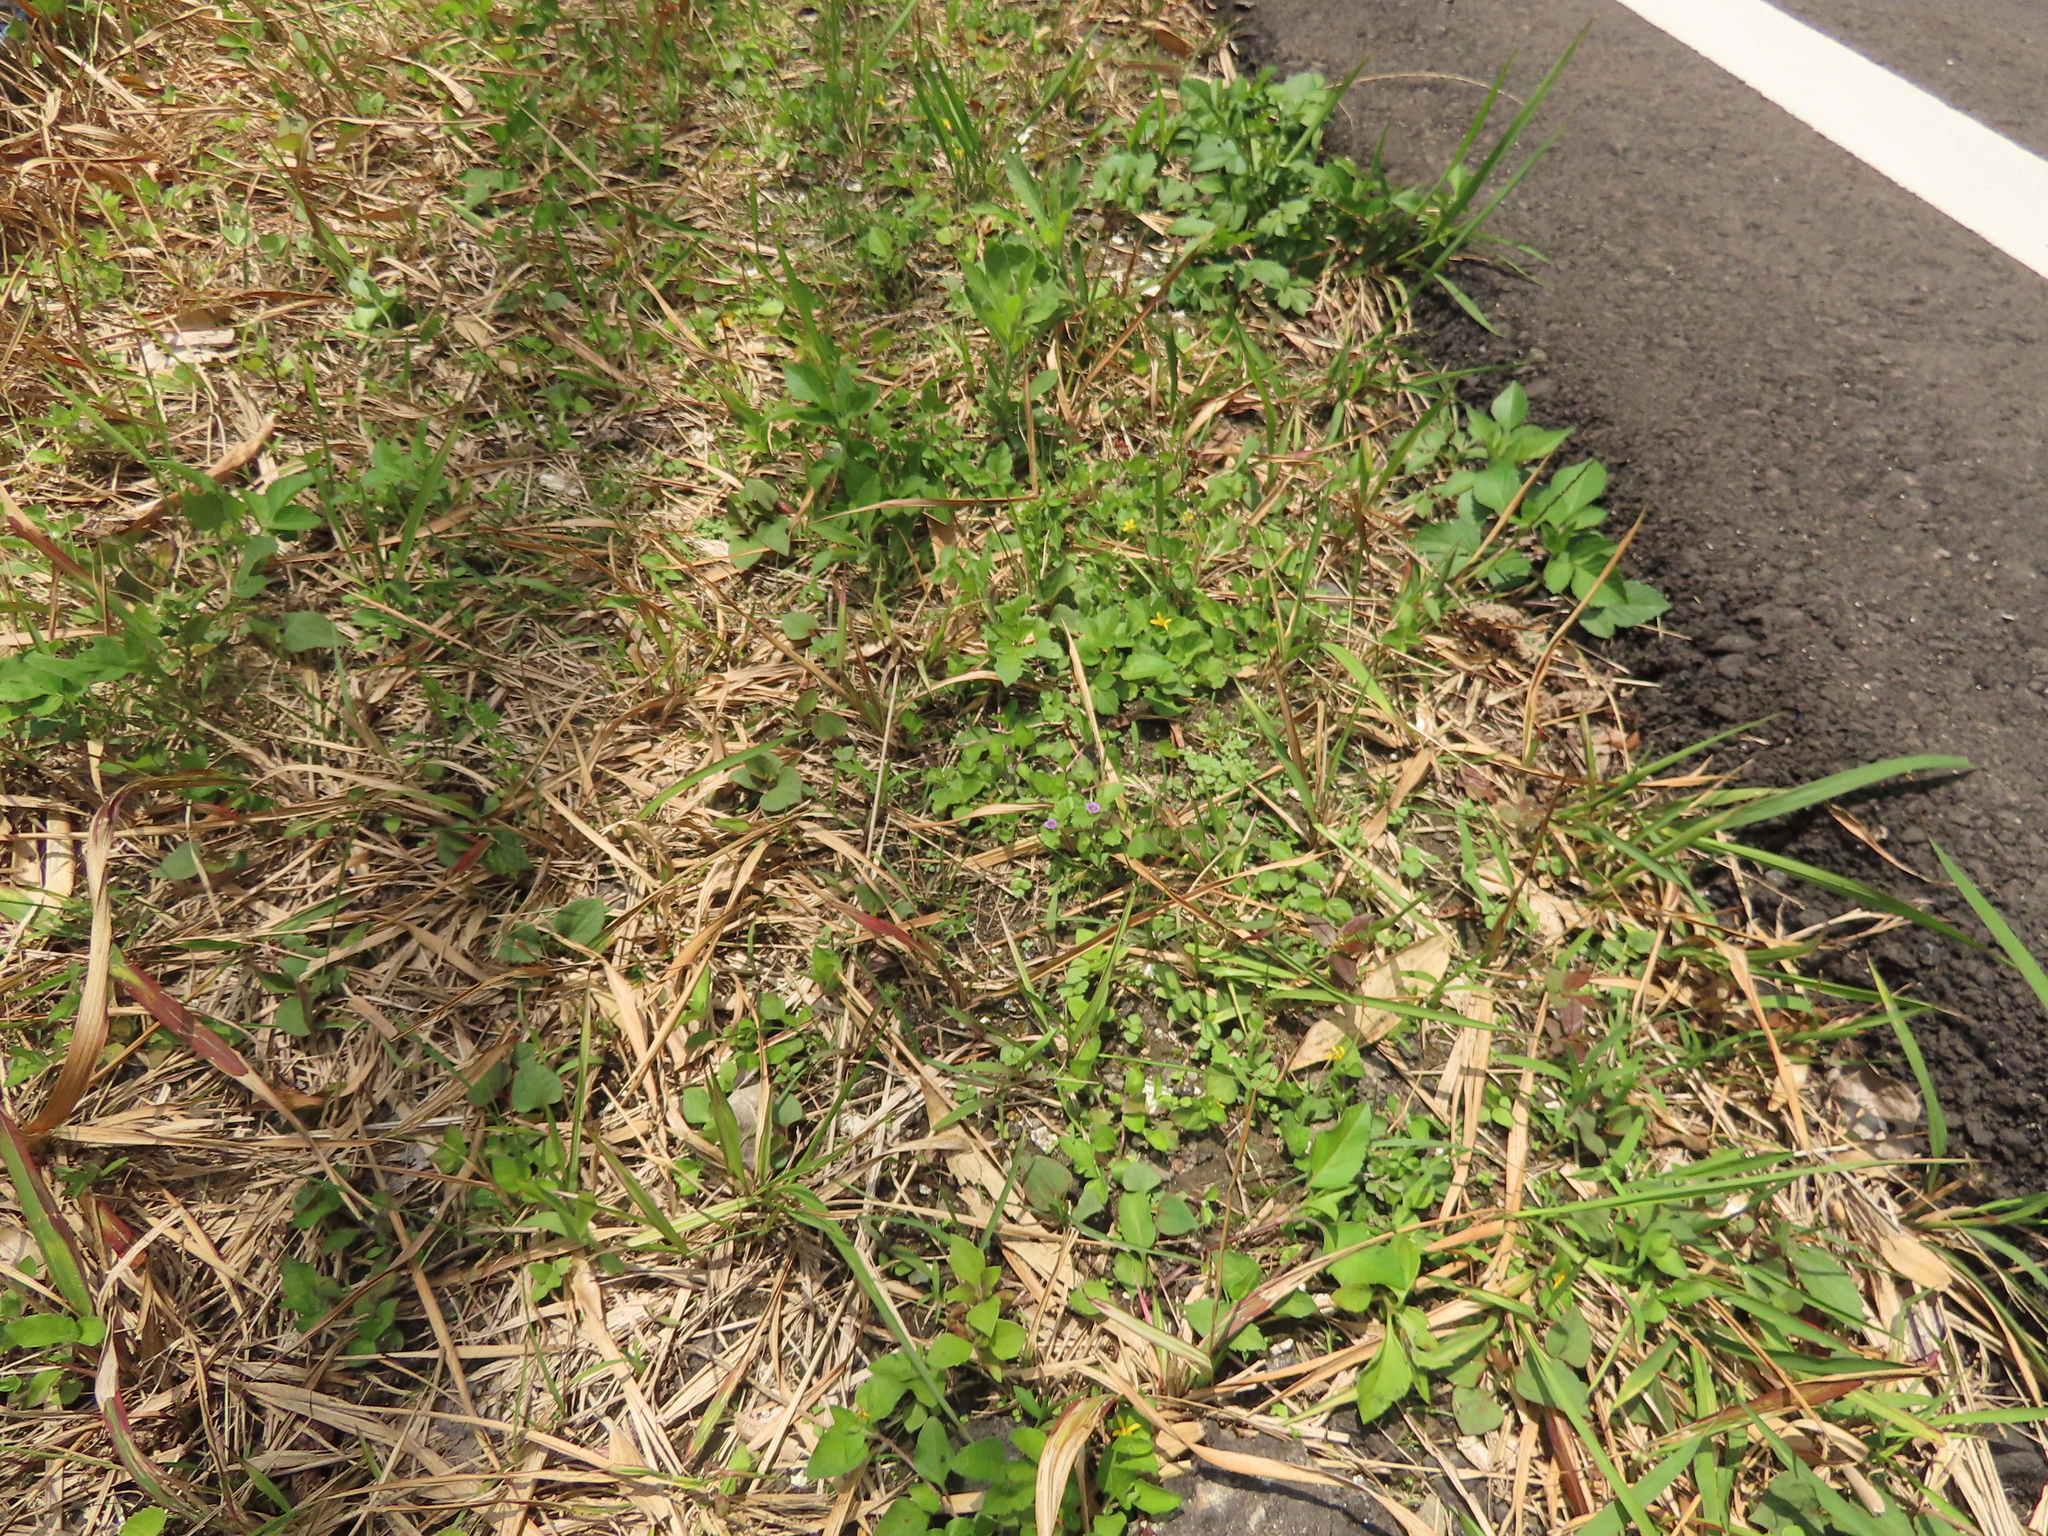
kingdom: Plantae
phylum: Tracheophyta
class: Magnoliopsida
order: Lamiales
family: Plantaginaceae
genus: Stemodia
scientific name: Stemodia verticillata
